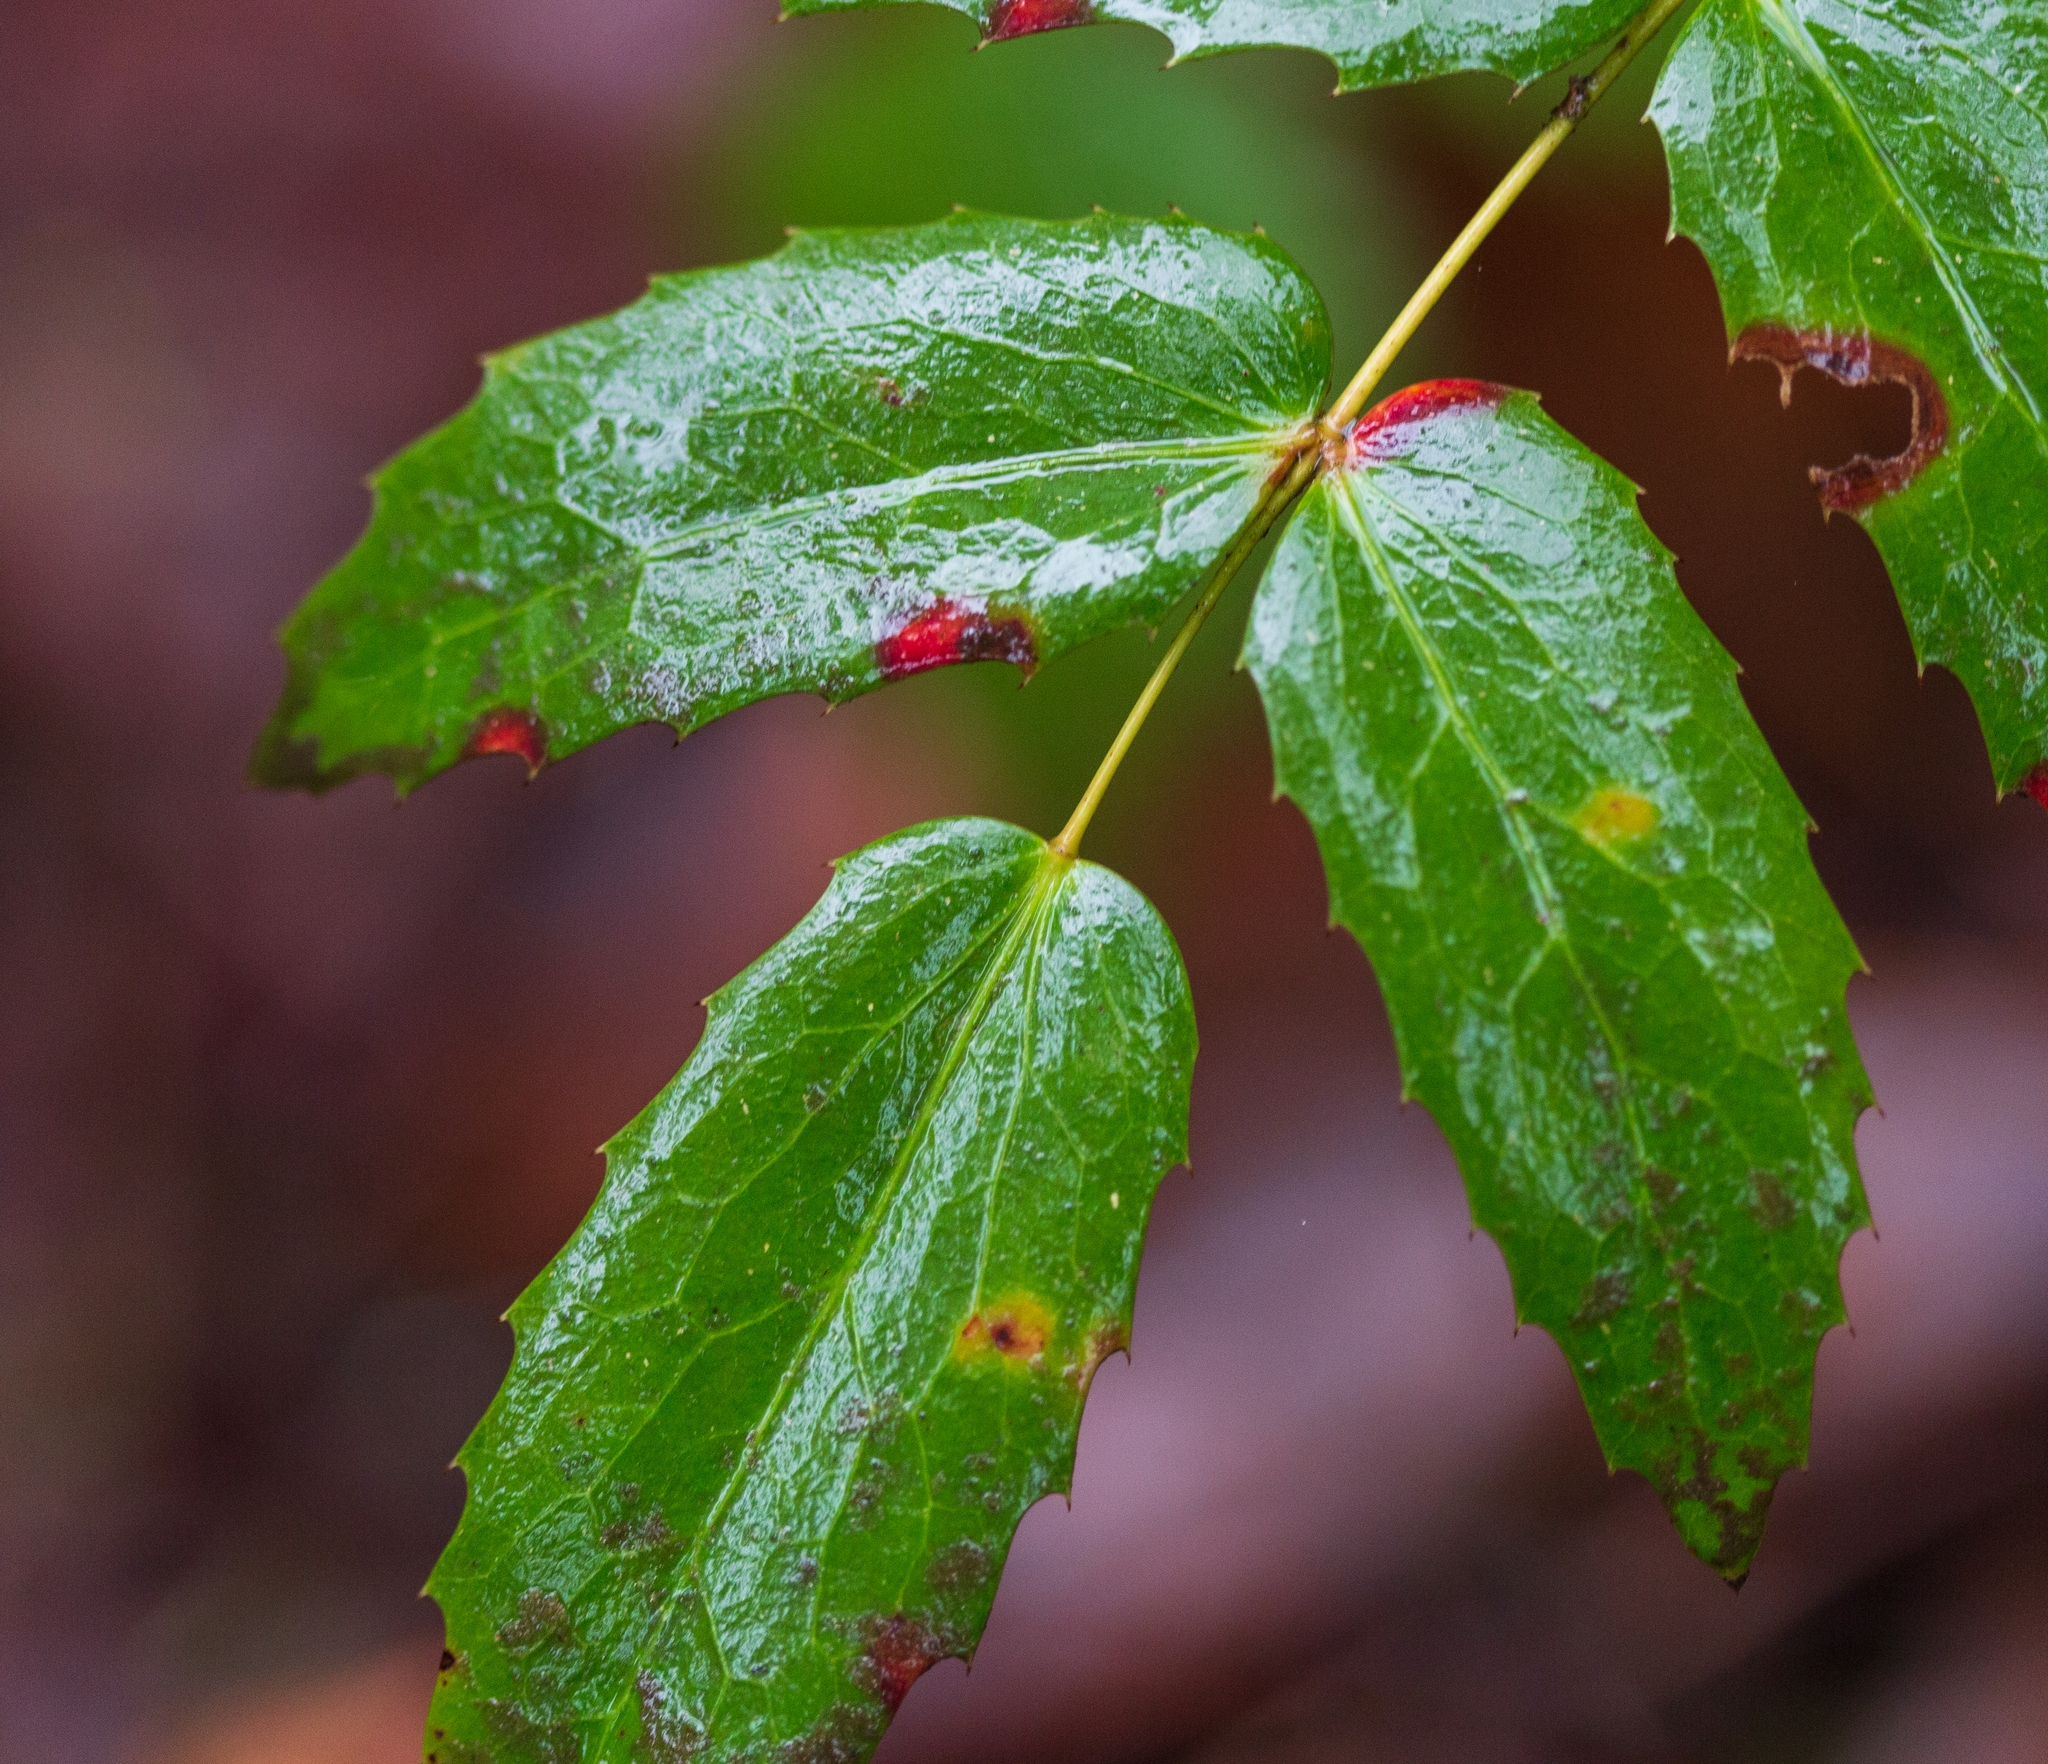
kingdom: Plantae
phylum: Tracheophyta
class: Magnoliopsida
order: Ranunculales
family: Berberidaceae
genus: Mahonia
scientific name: Mahonia nervosa
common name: Cascade oregon-grape
